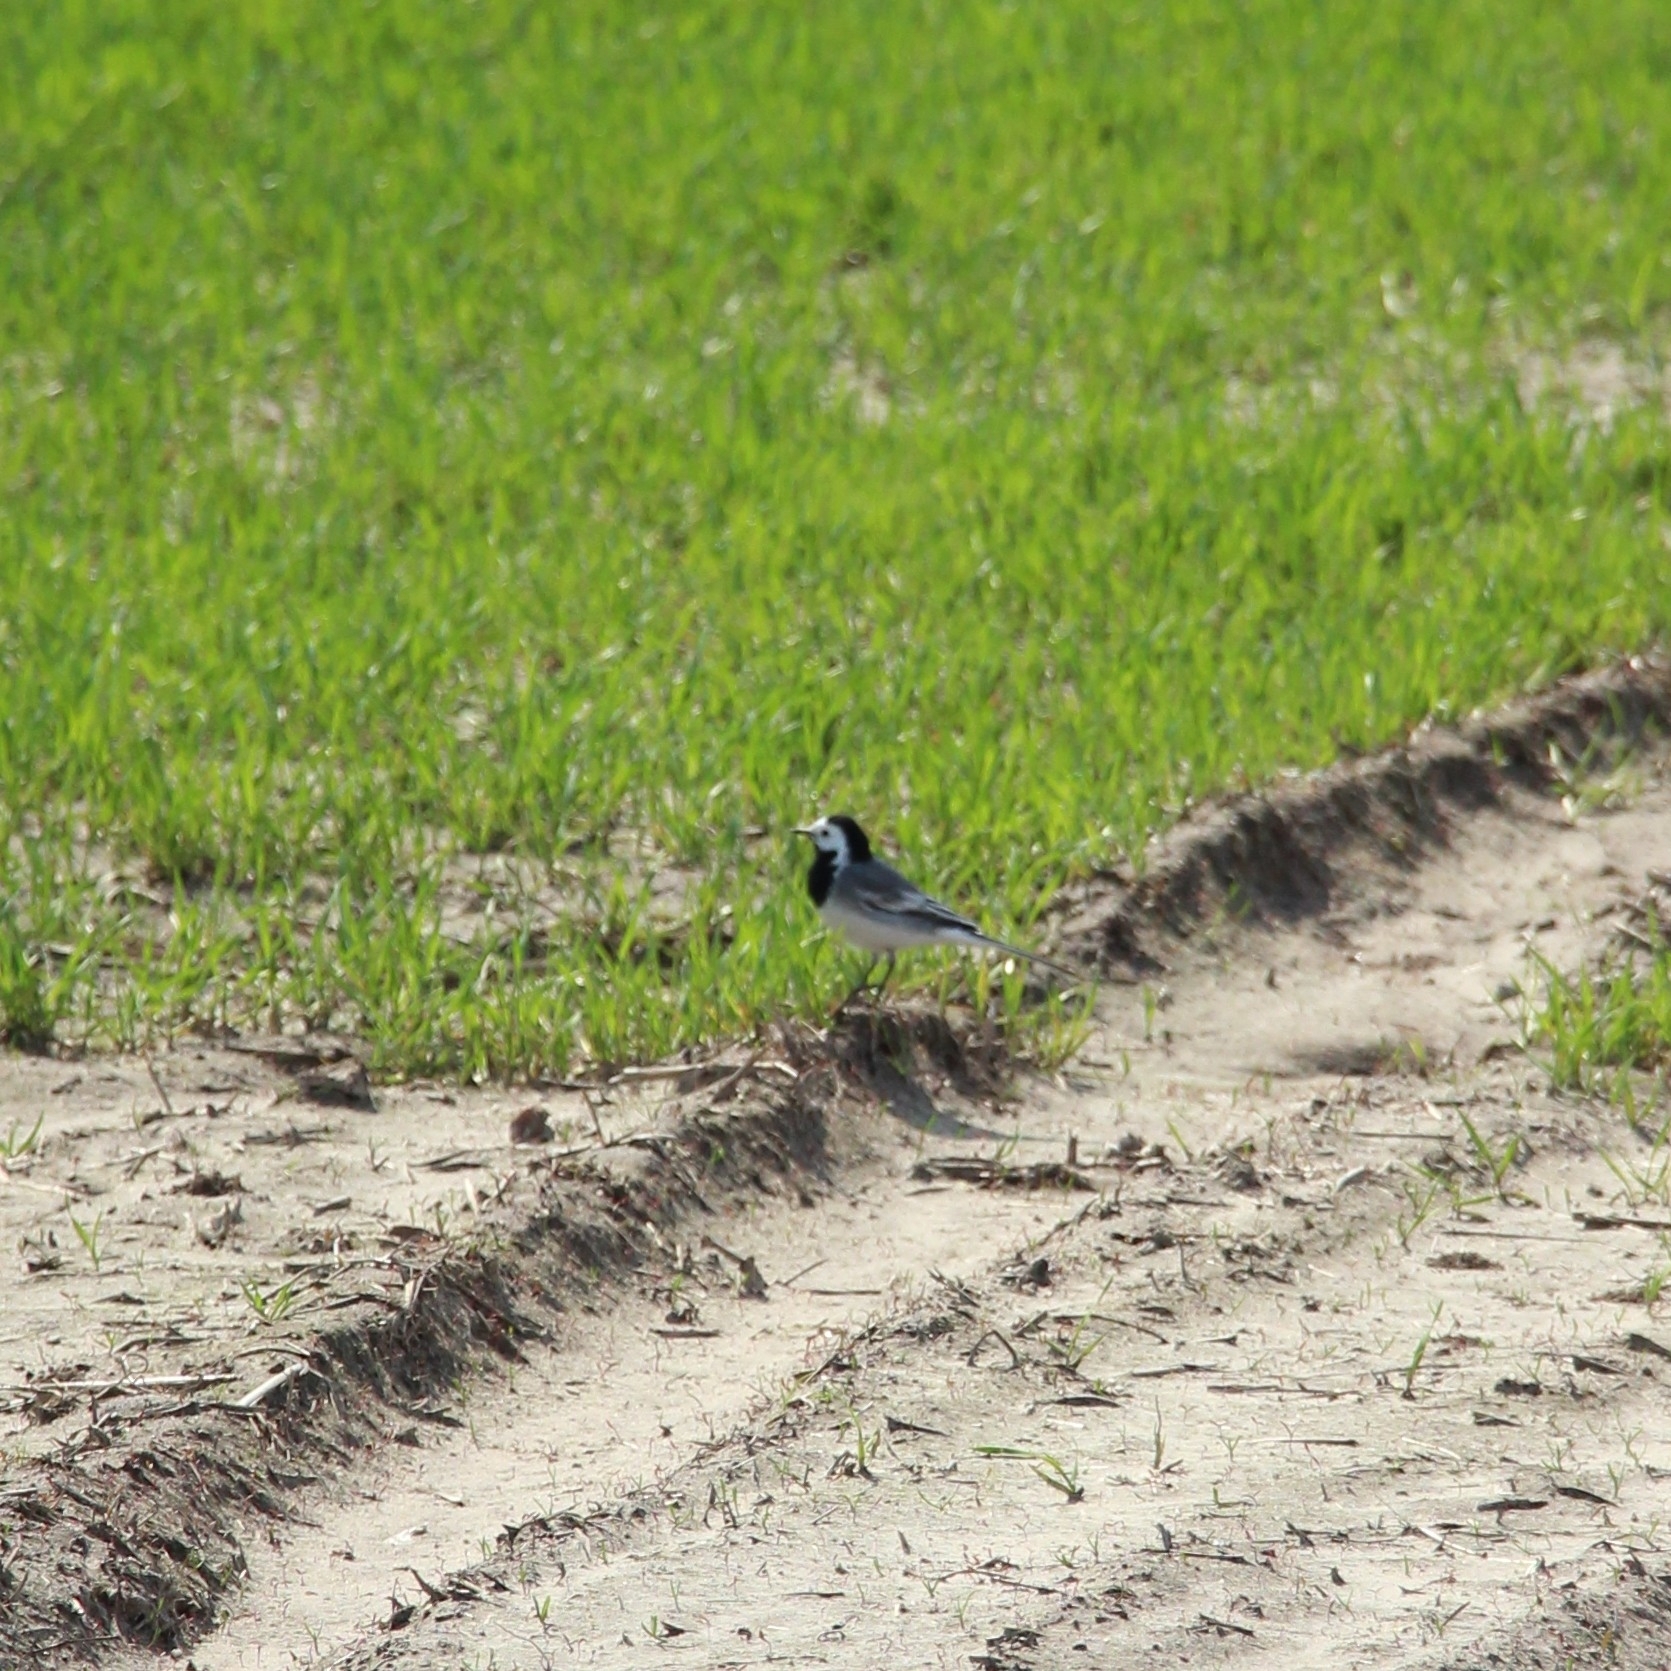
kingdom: Animalia
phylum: Chordata
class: Aves
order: Passeriformes
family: Motacillidae
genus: Motacilla
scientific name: Motacilla alba
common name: White wagtail
